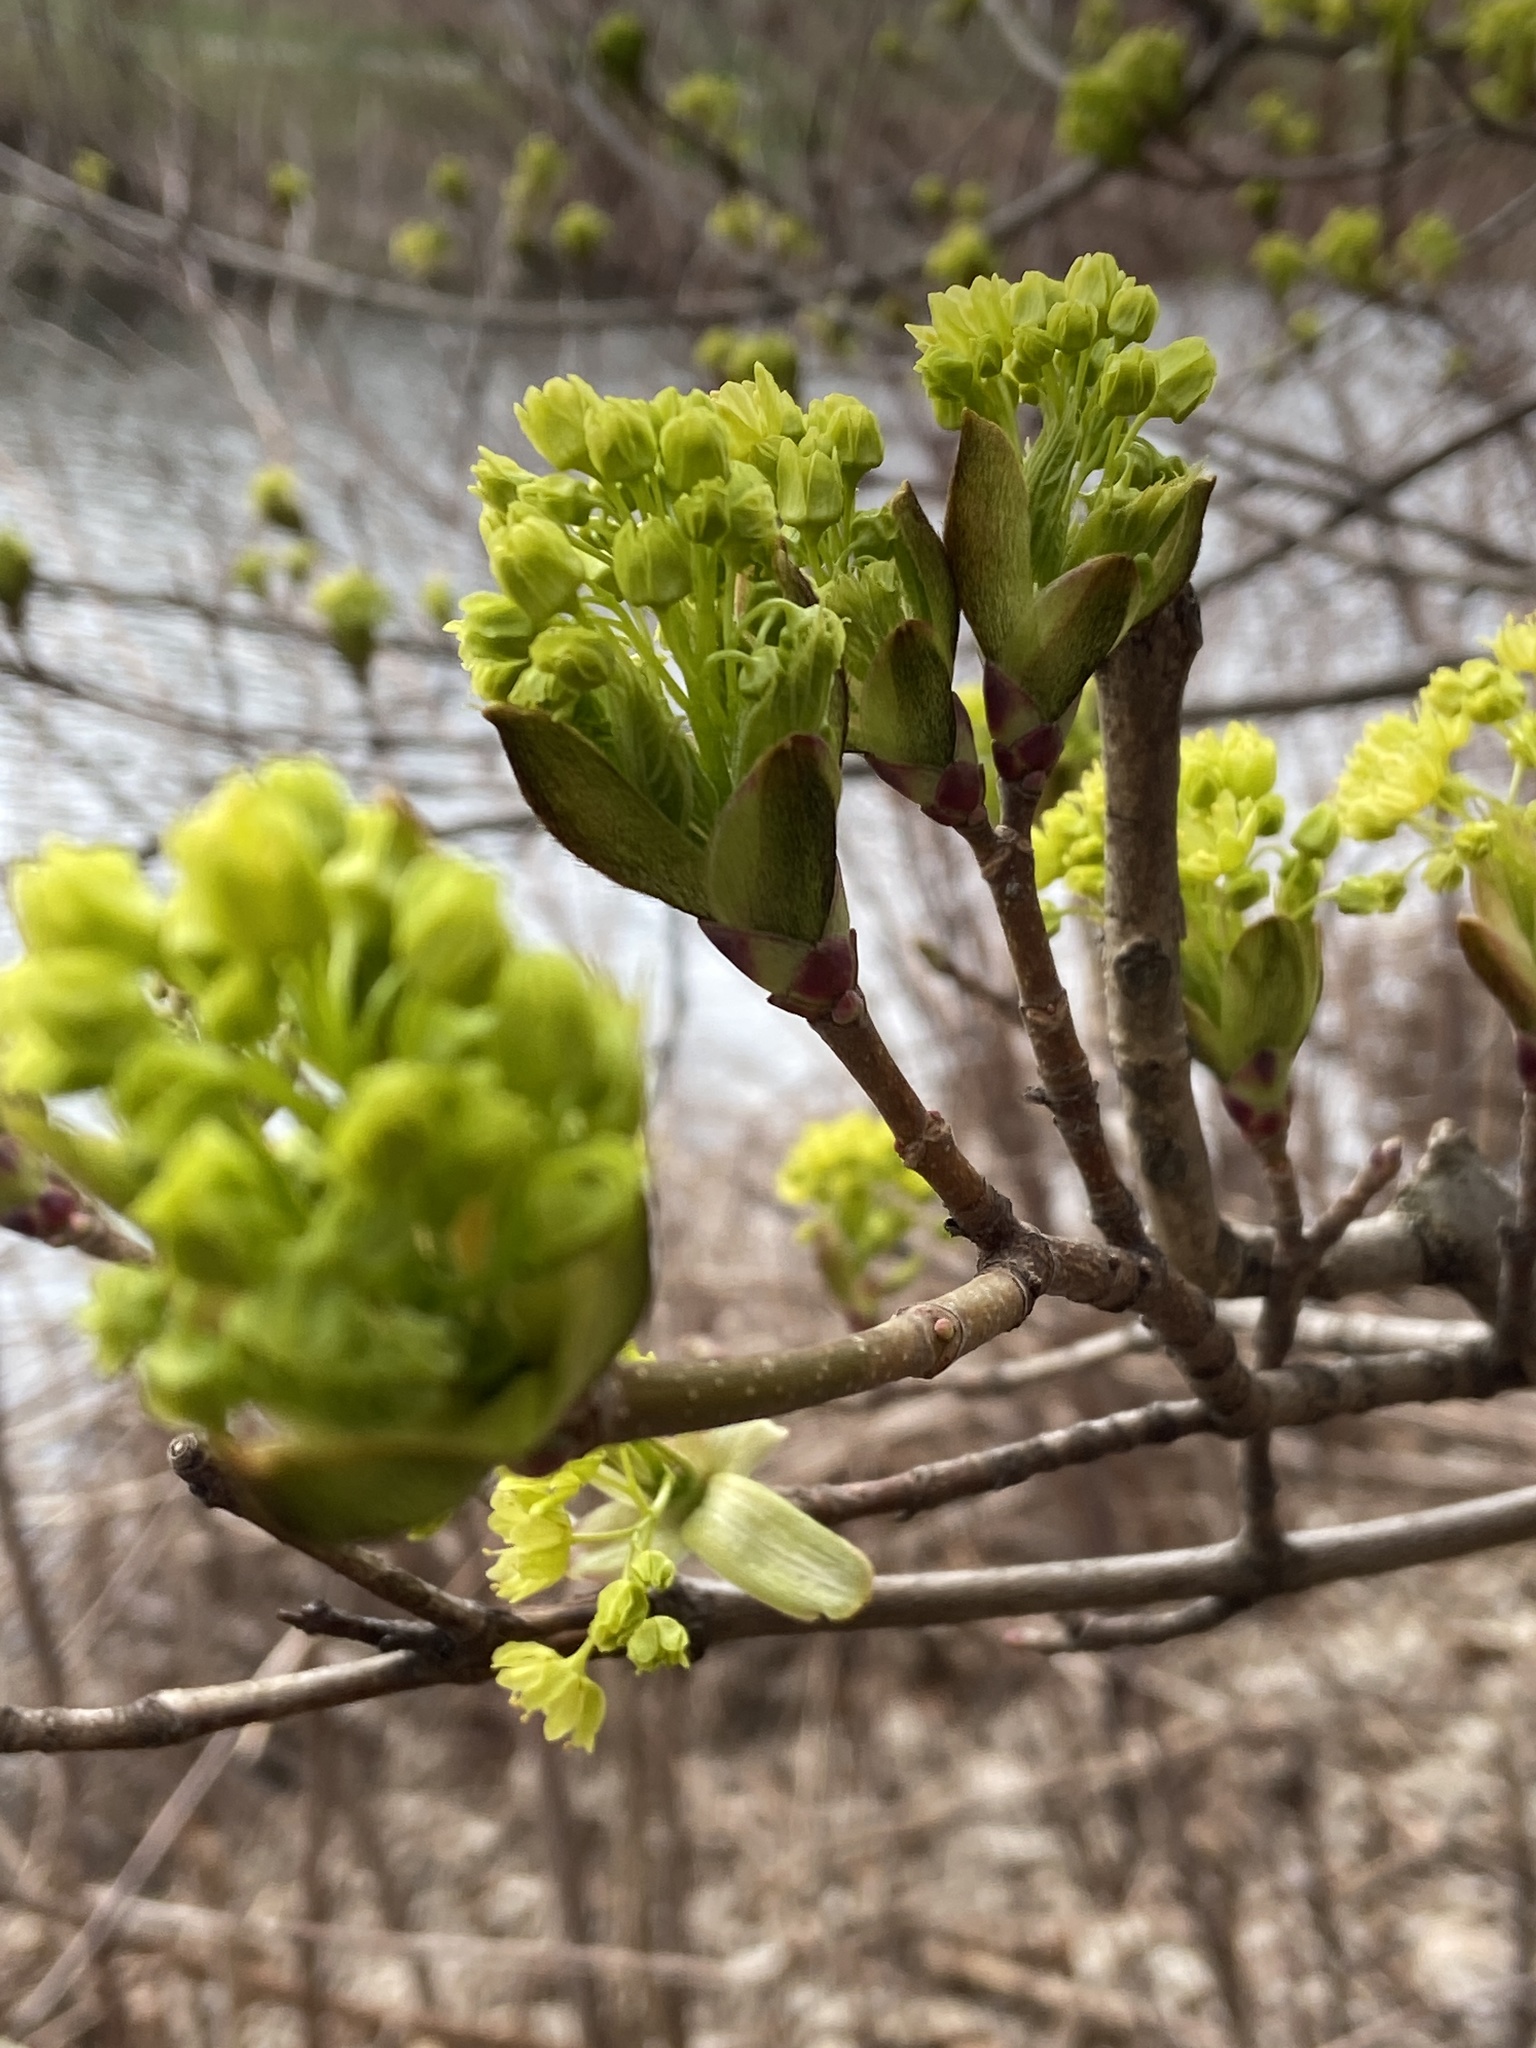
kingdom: Plantae
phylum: Tracheophyta
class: Magnoliopsida
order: Sapindales
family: Sapindaceae
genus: Acer
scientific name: Acer platanoides
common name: Norway maple
